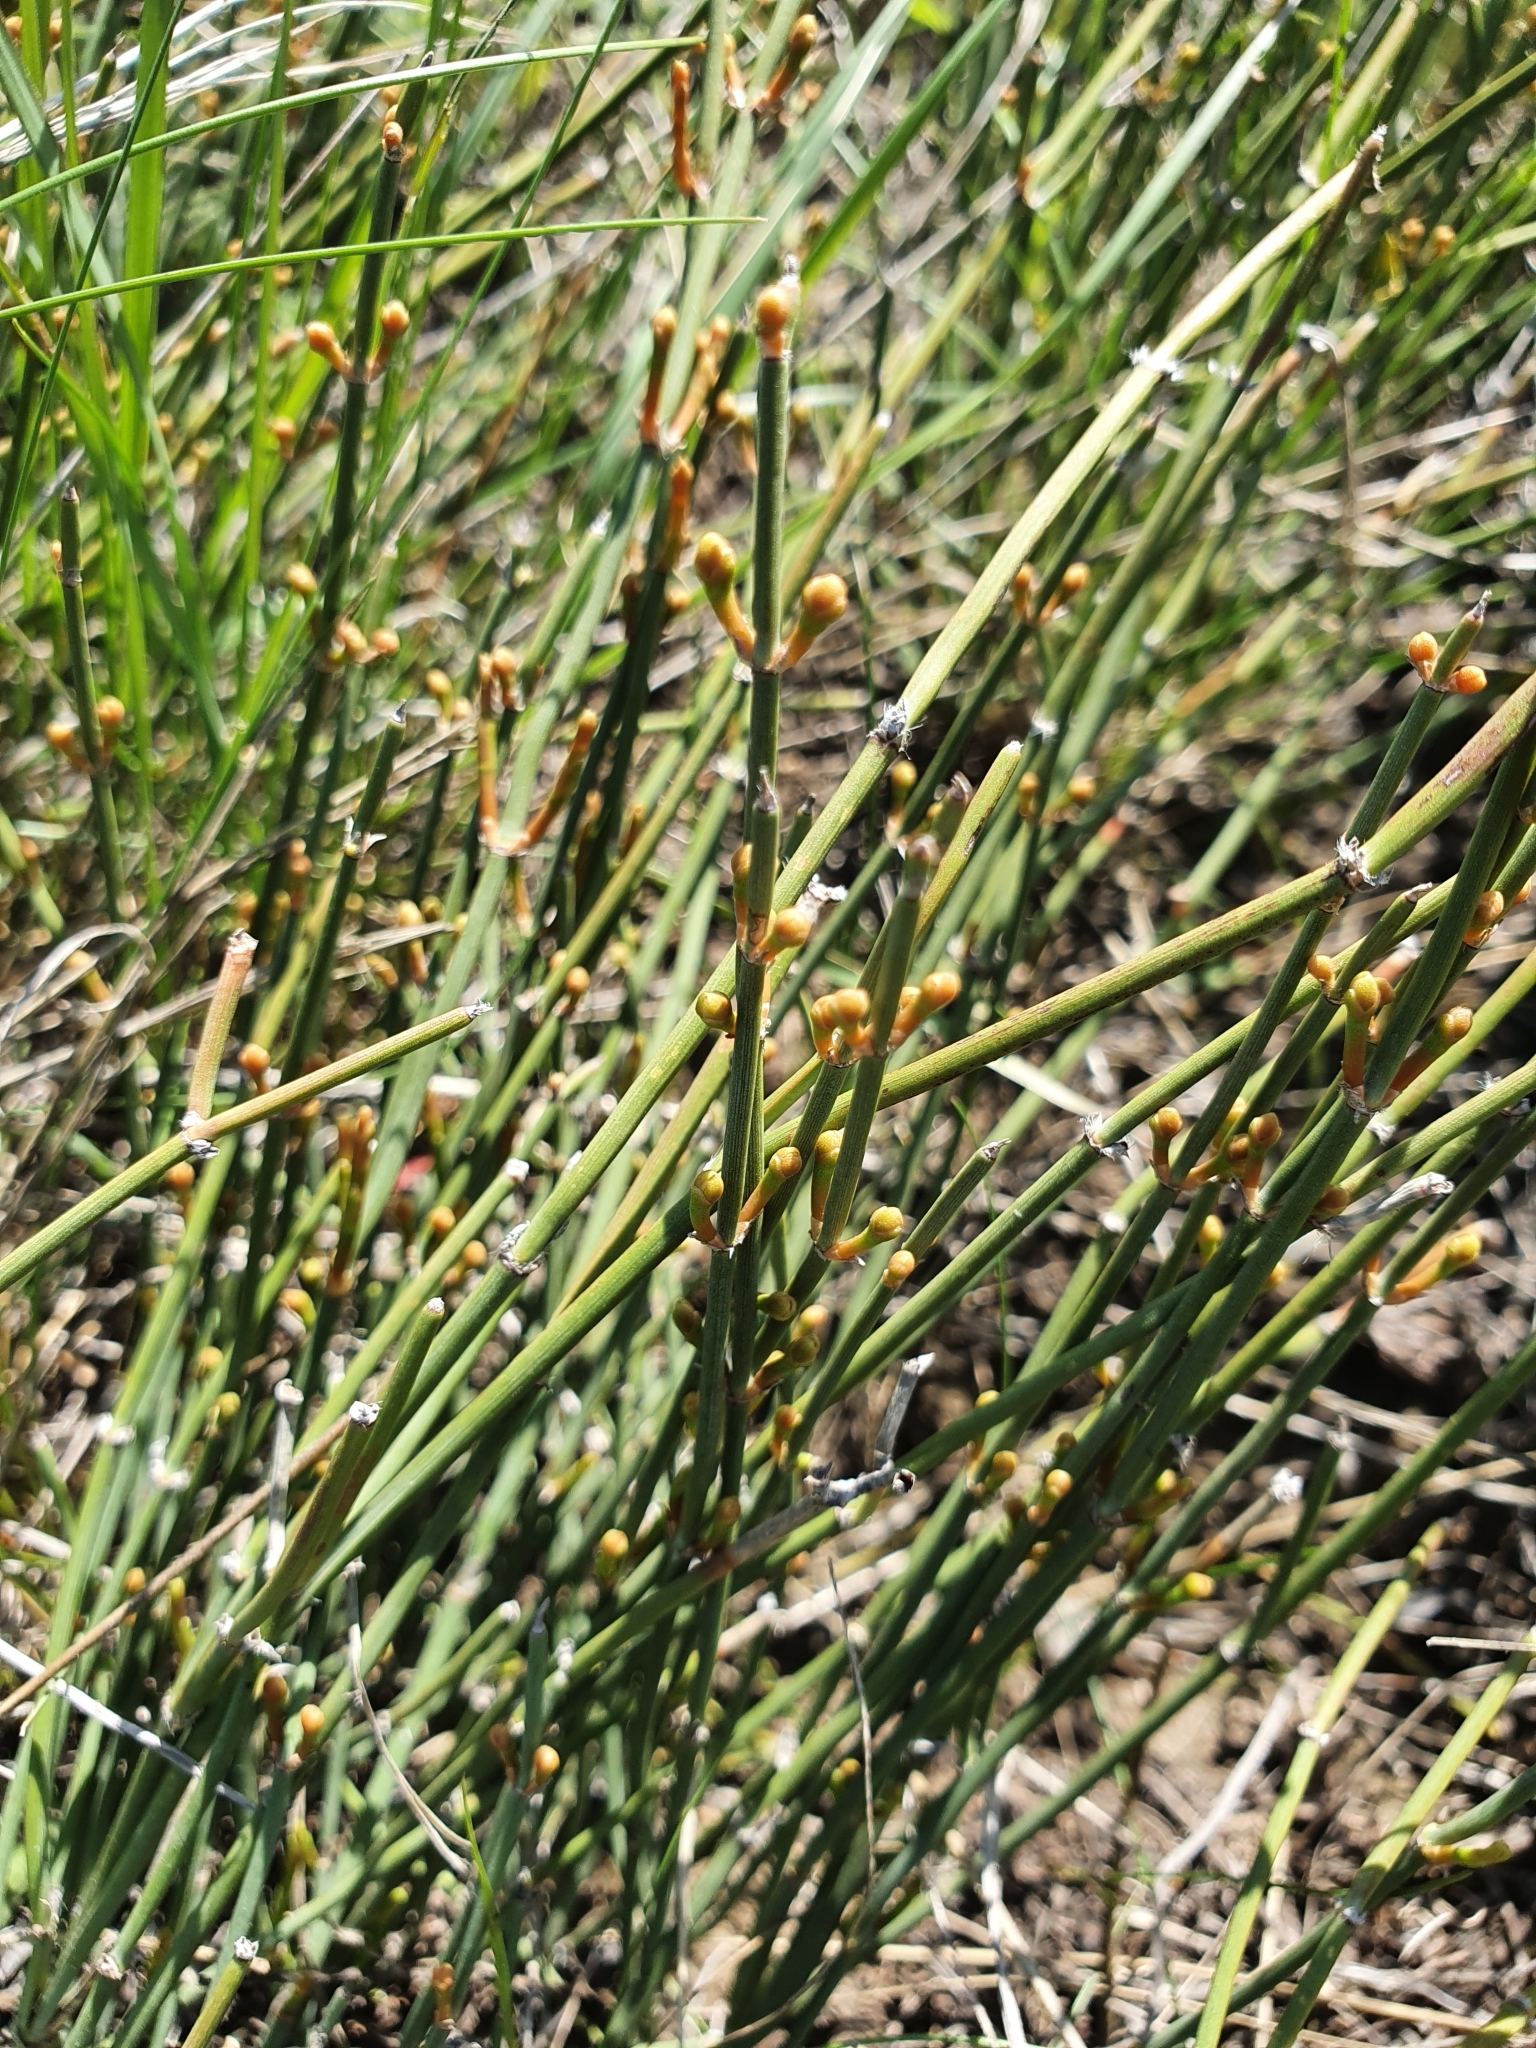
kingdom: Plantae
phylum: Tracheophyta
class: Gnetopsida
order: Ephedrales
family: Ephedraceae
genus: Ephedra
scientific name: Ephedra distachya
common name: Sea grape
